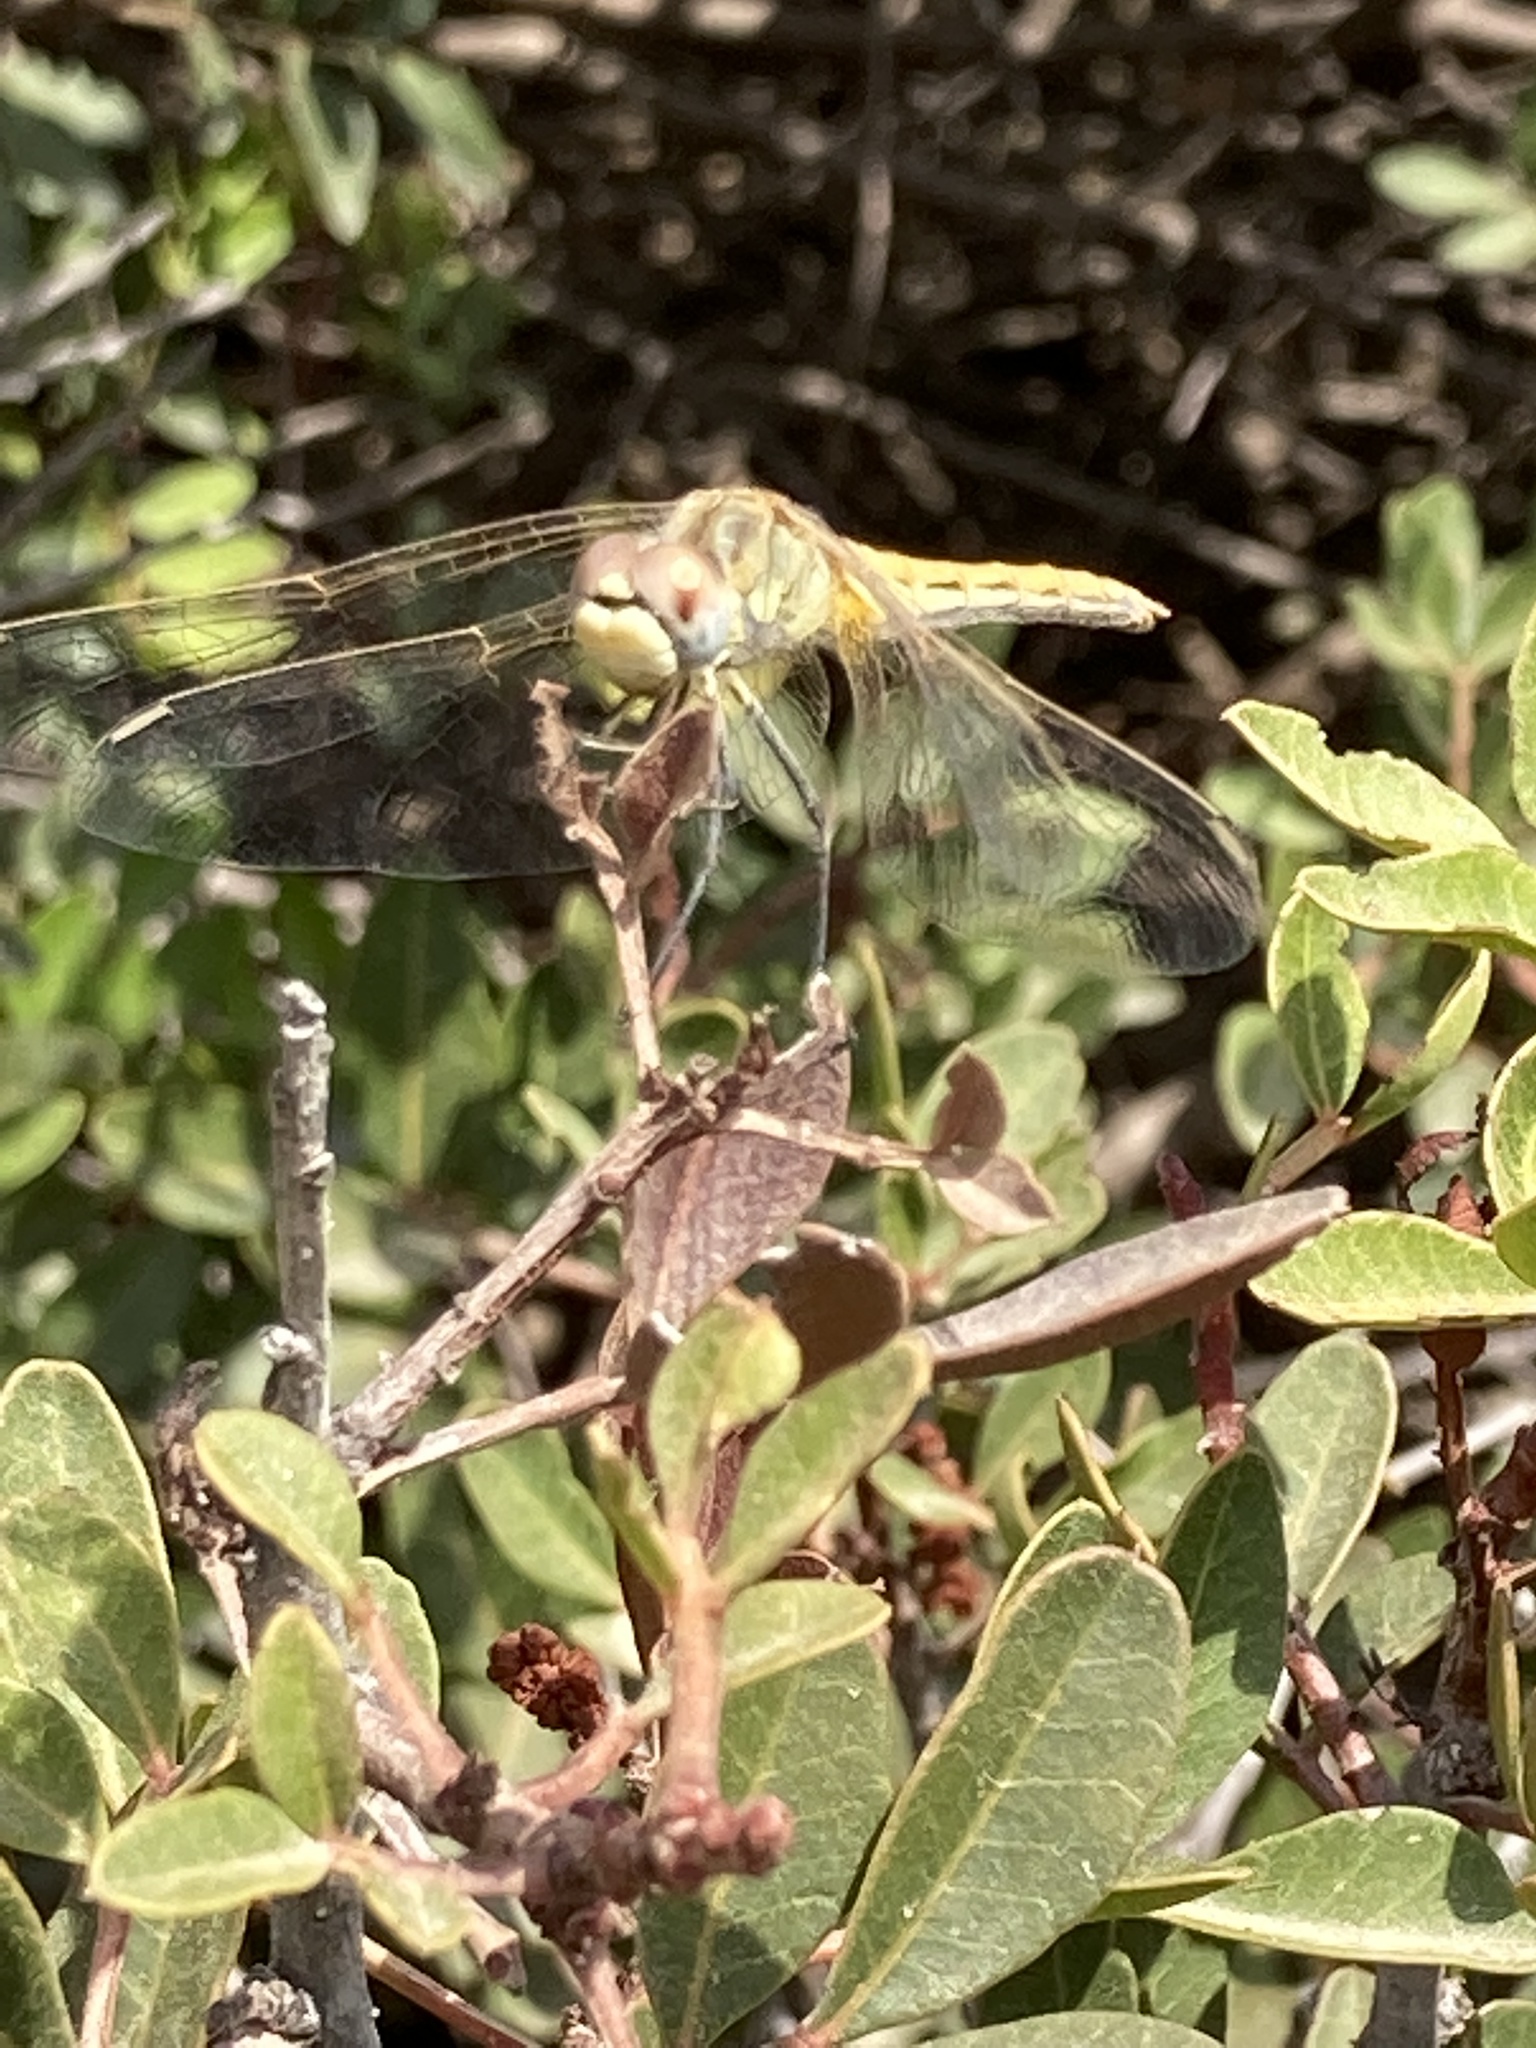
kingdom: Animalia
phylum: Arthropoda
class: Insecta
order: Odonata
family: Libellulidae
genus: Sympetrum
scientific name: Sympetrum fonscolombii
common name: Red-veined darter
